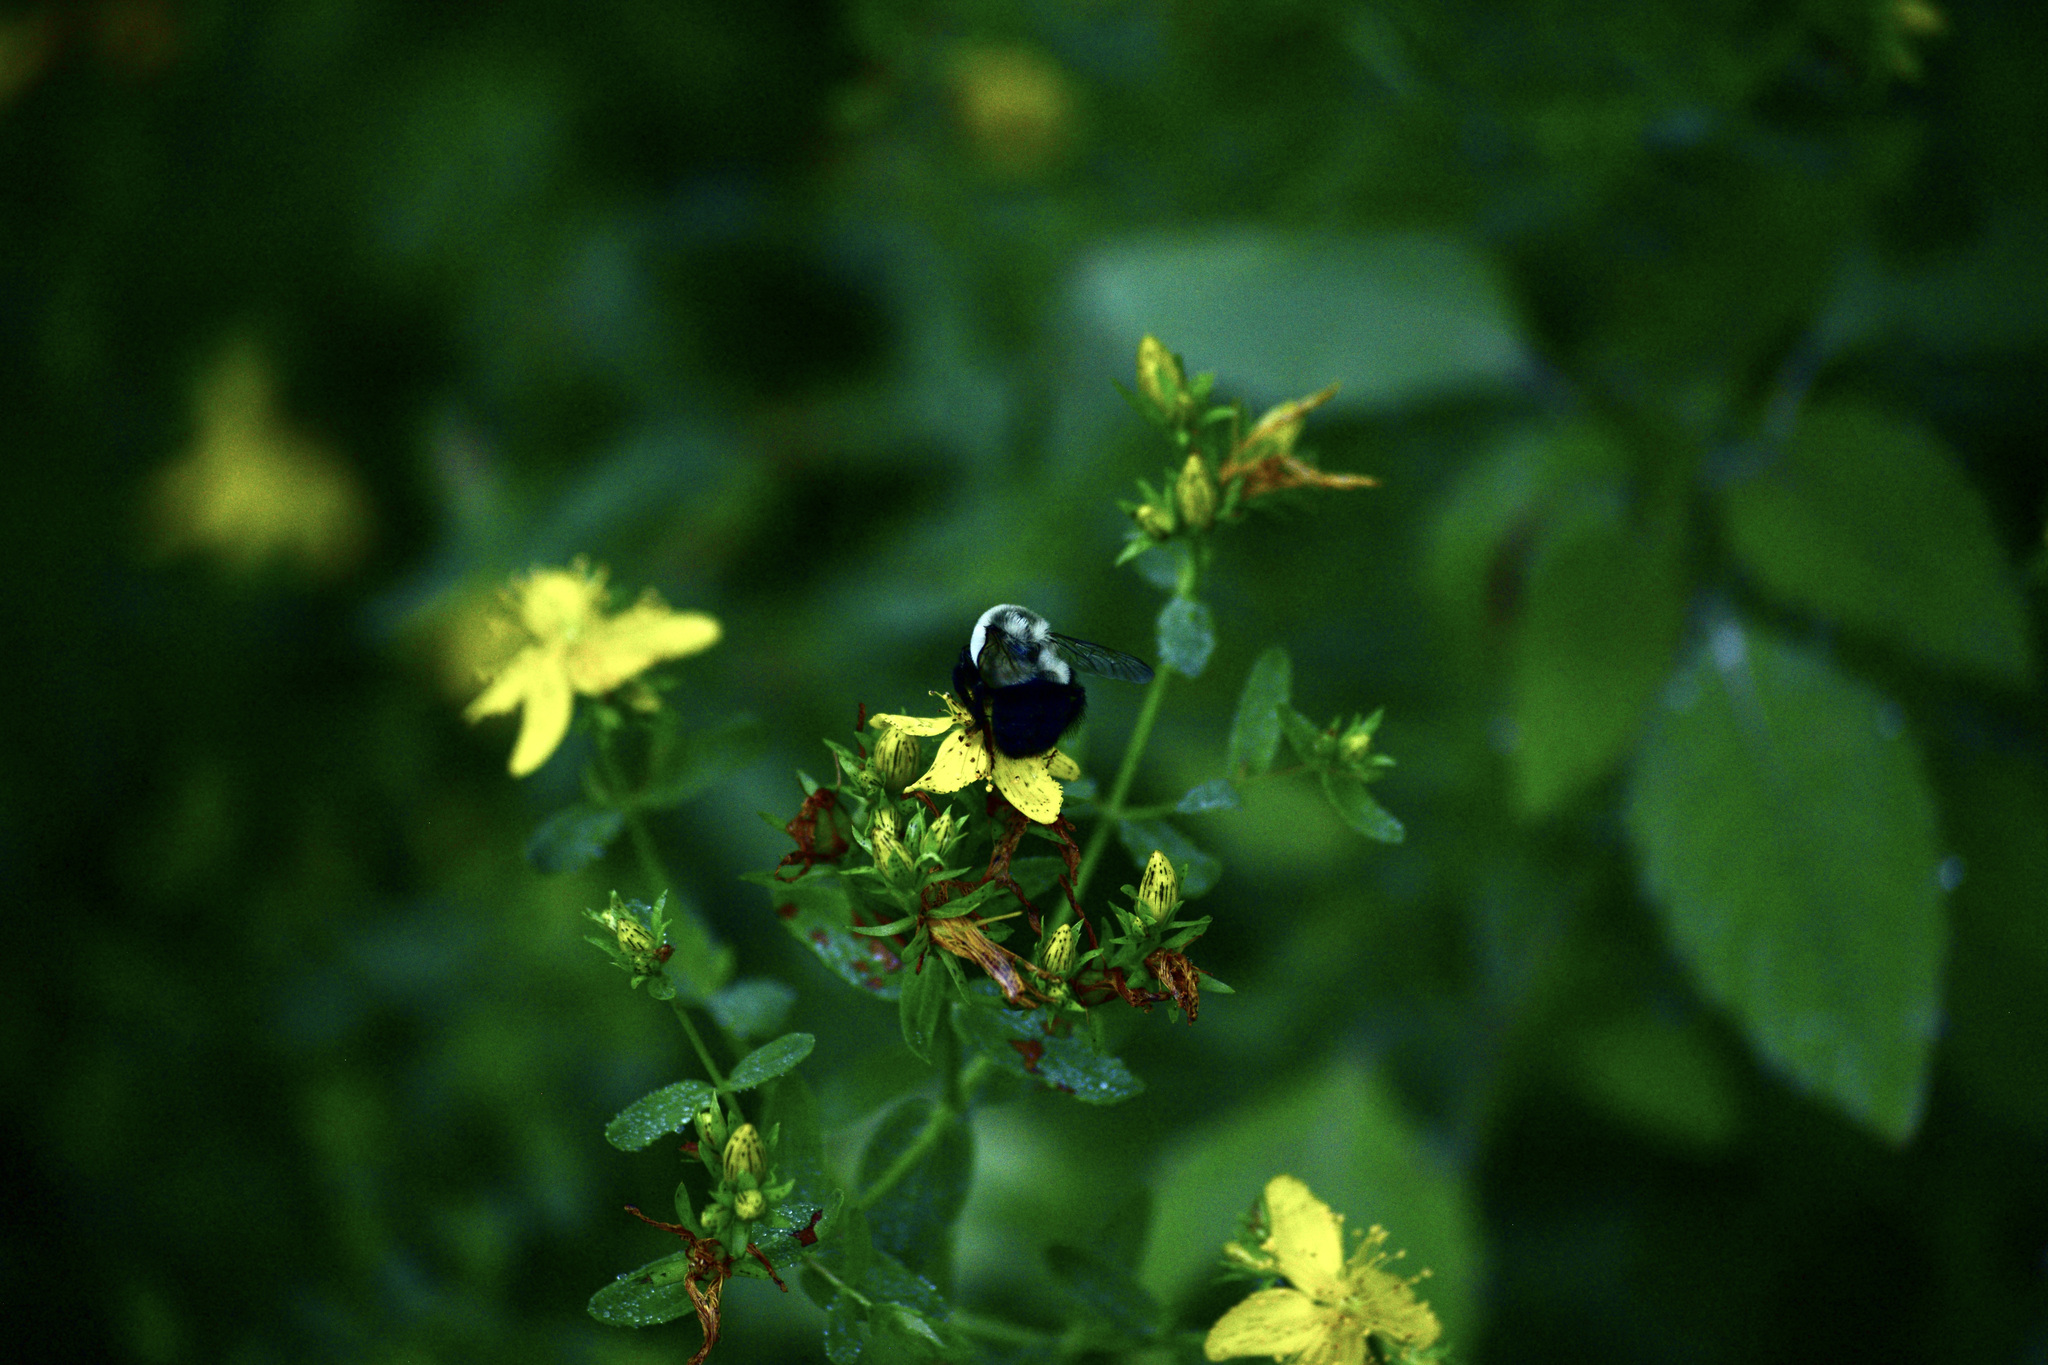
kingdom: Animalia
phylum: Arthropoda
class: Insecta
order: Hymenoptera
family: Apidae
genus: Bombus
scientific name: Bombus impatiens
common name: Common eastern bumble bee
